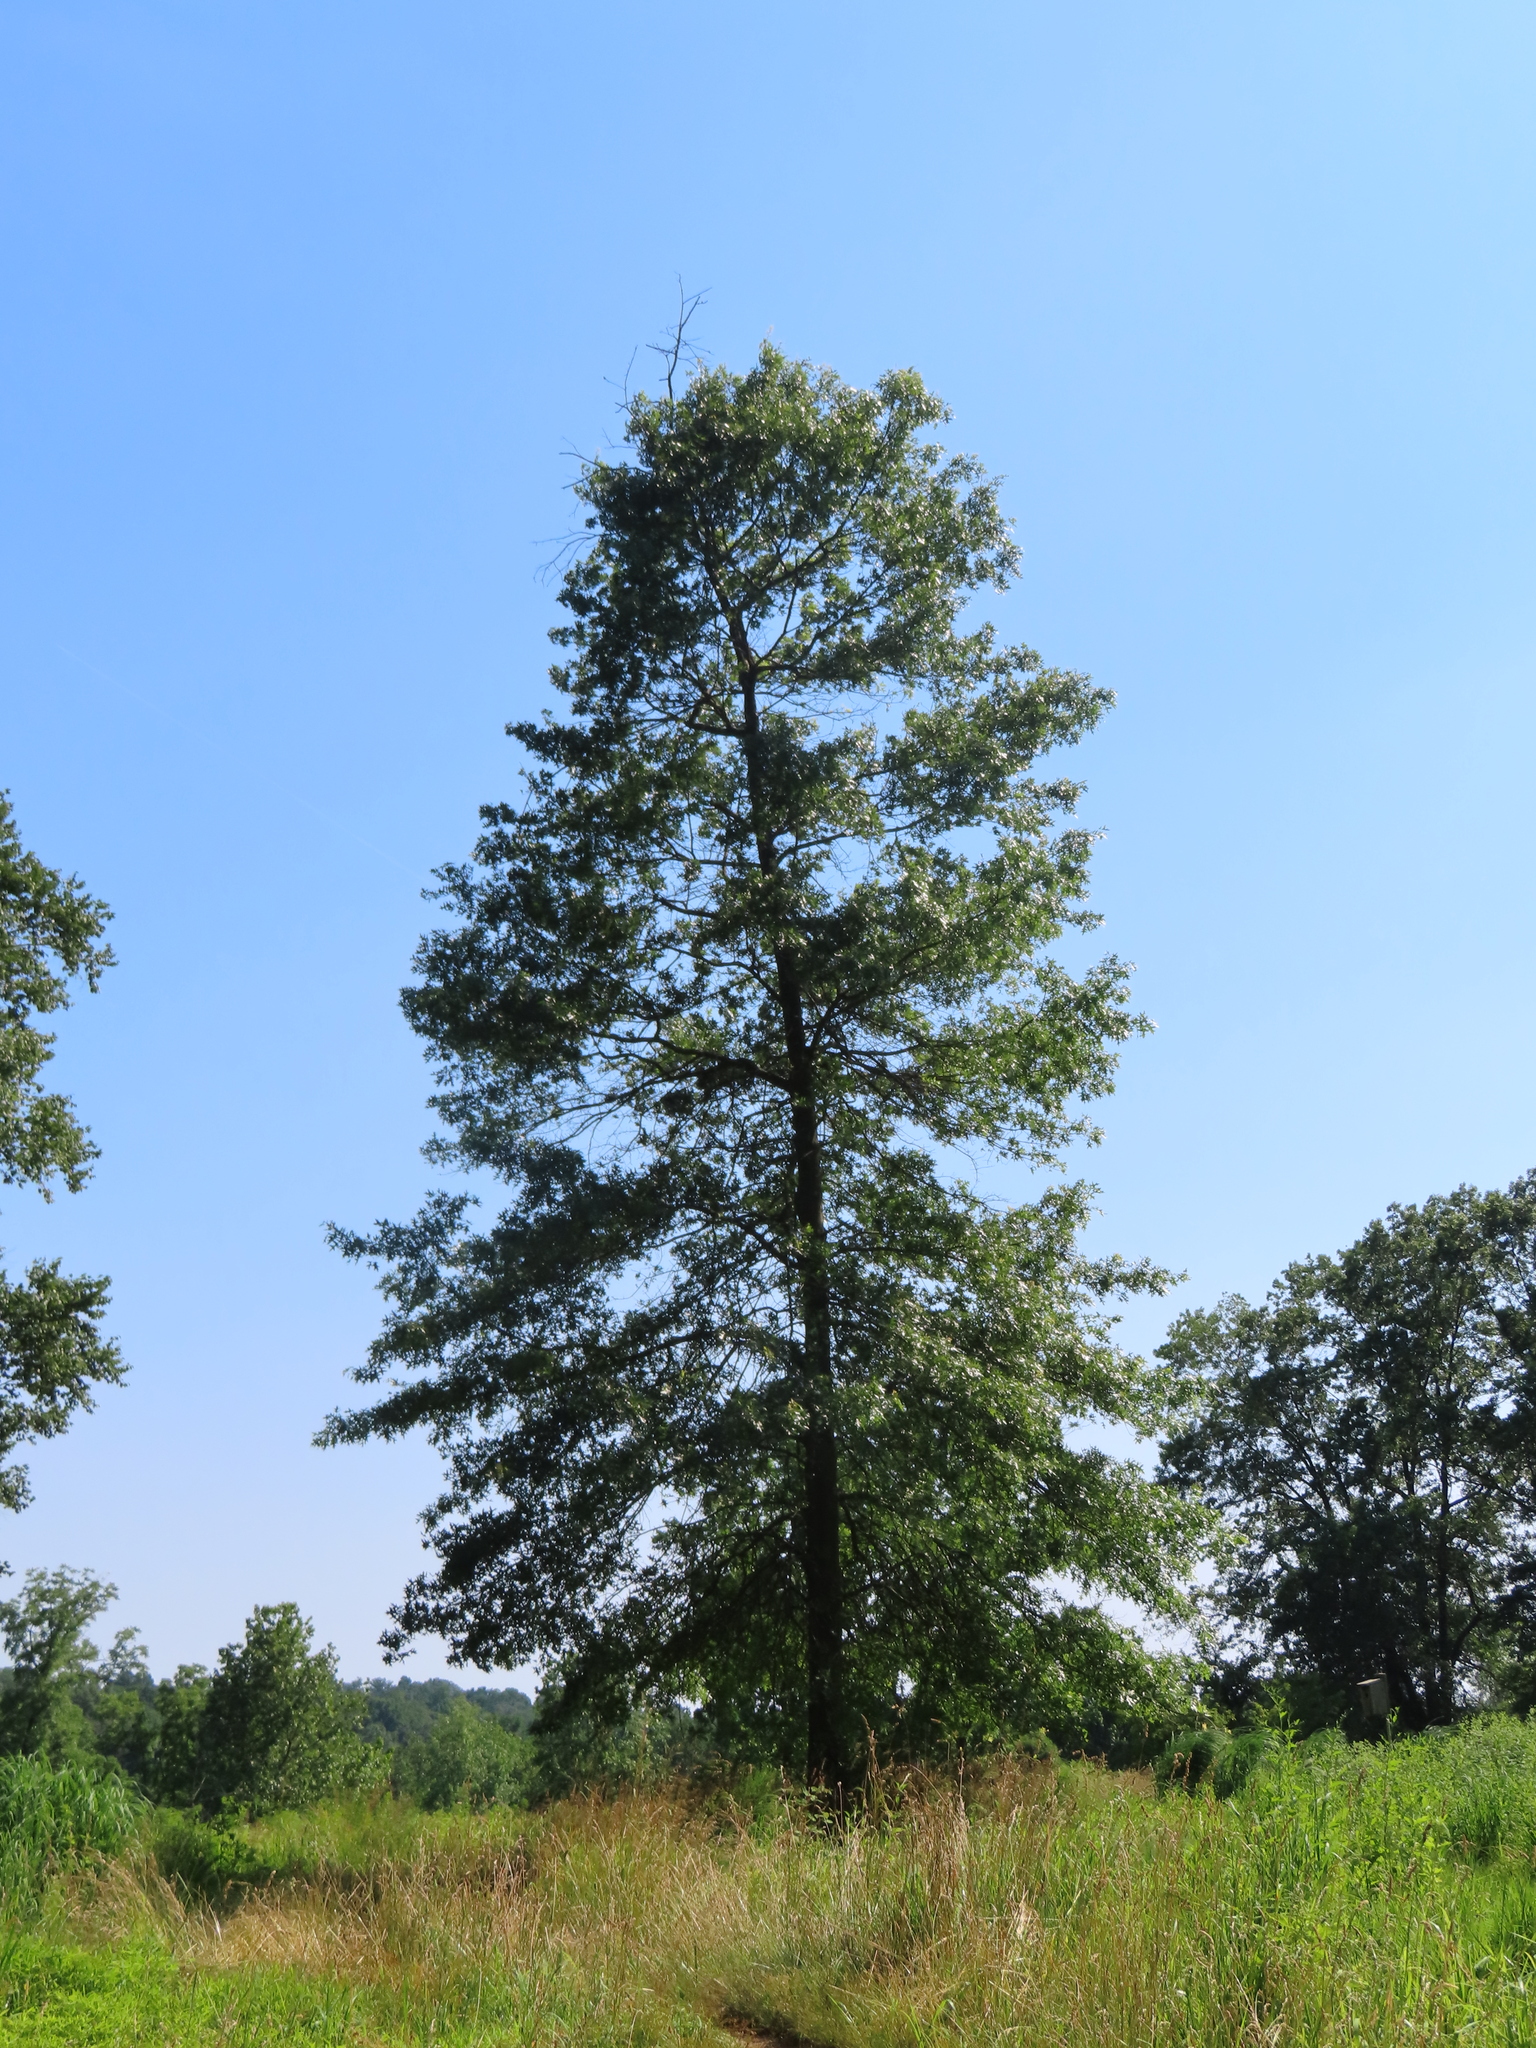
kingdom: Plantae
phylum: Tracheophyta
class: Magnoliopsida
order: Fagales
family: Fagaceae
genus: Quercus
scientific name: Quercus palustris
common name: Pin oak
